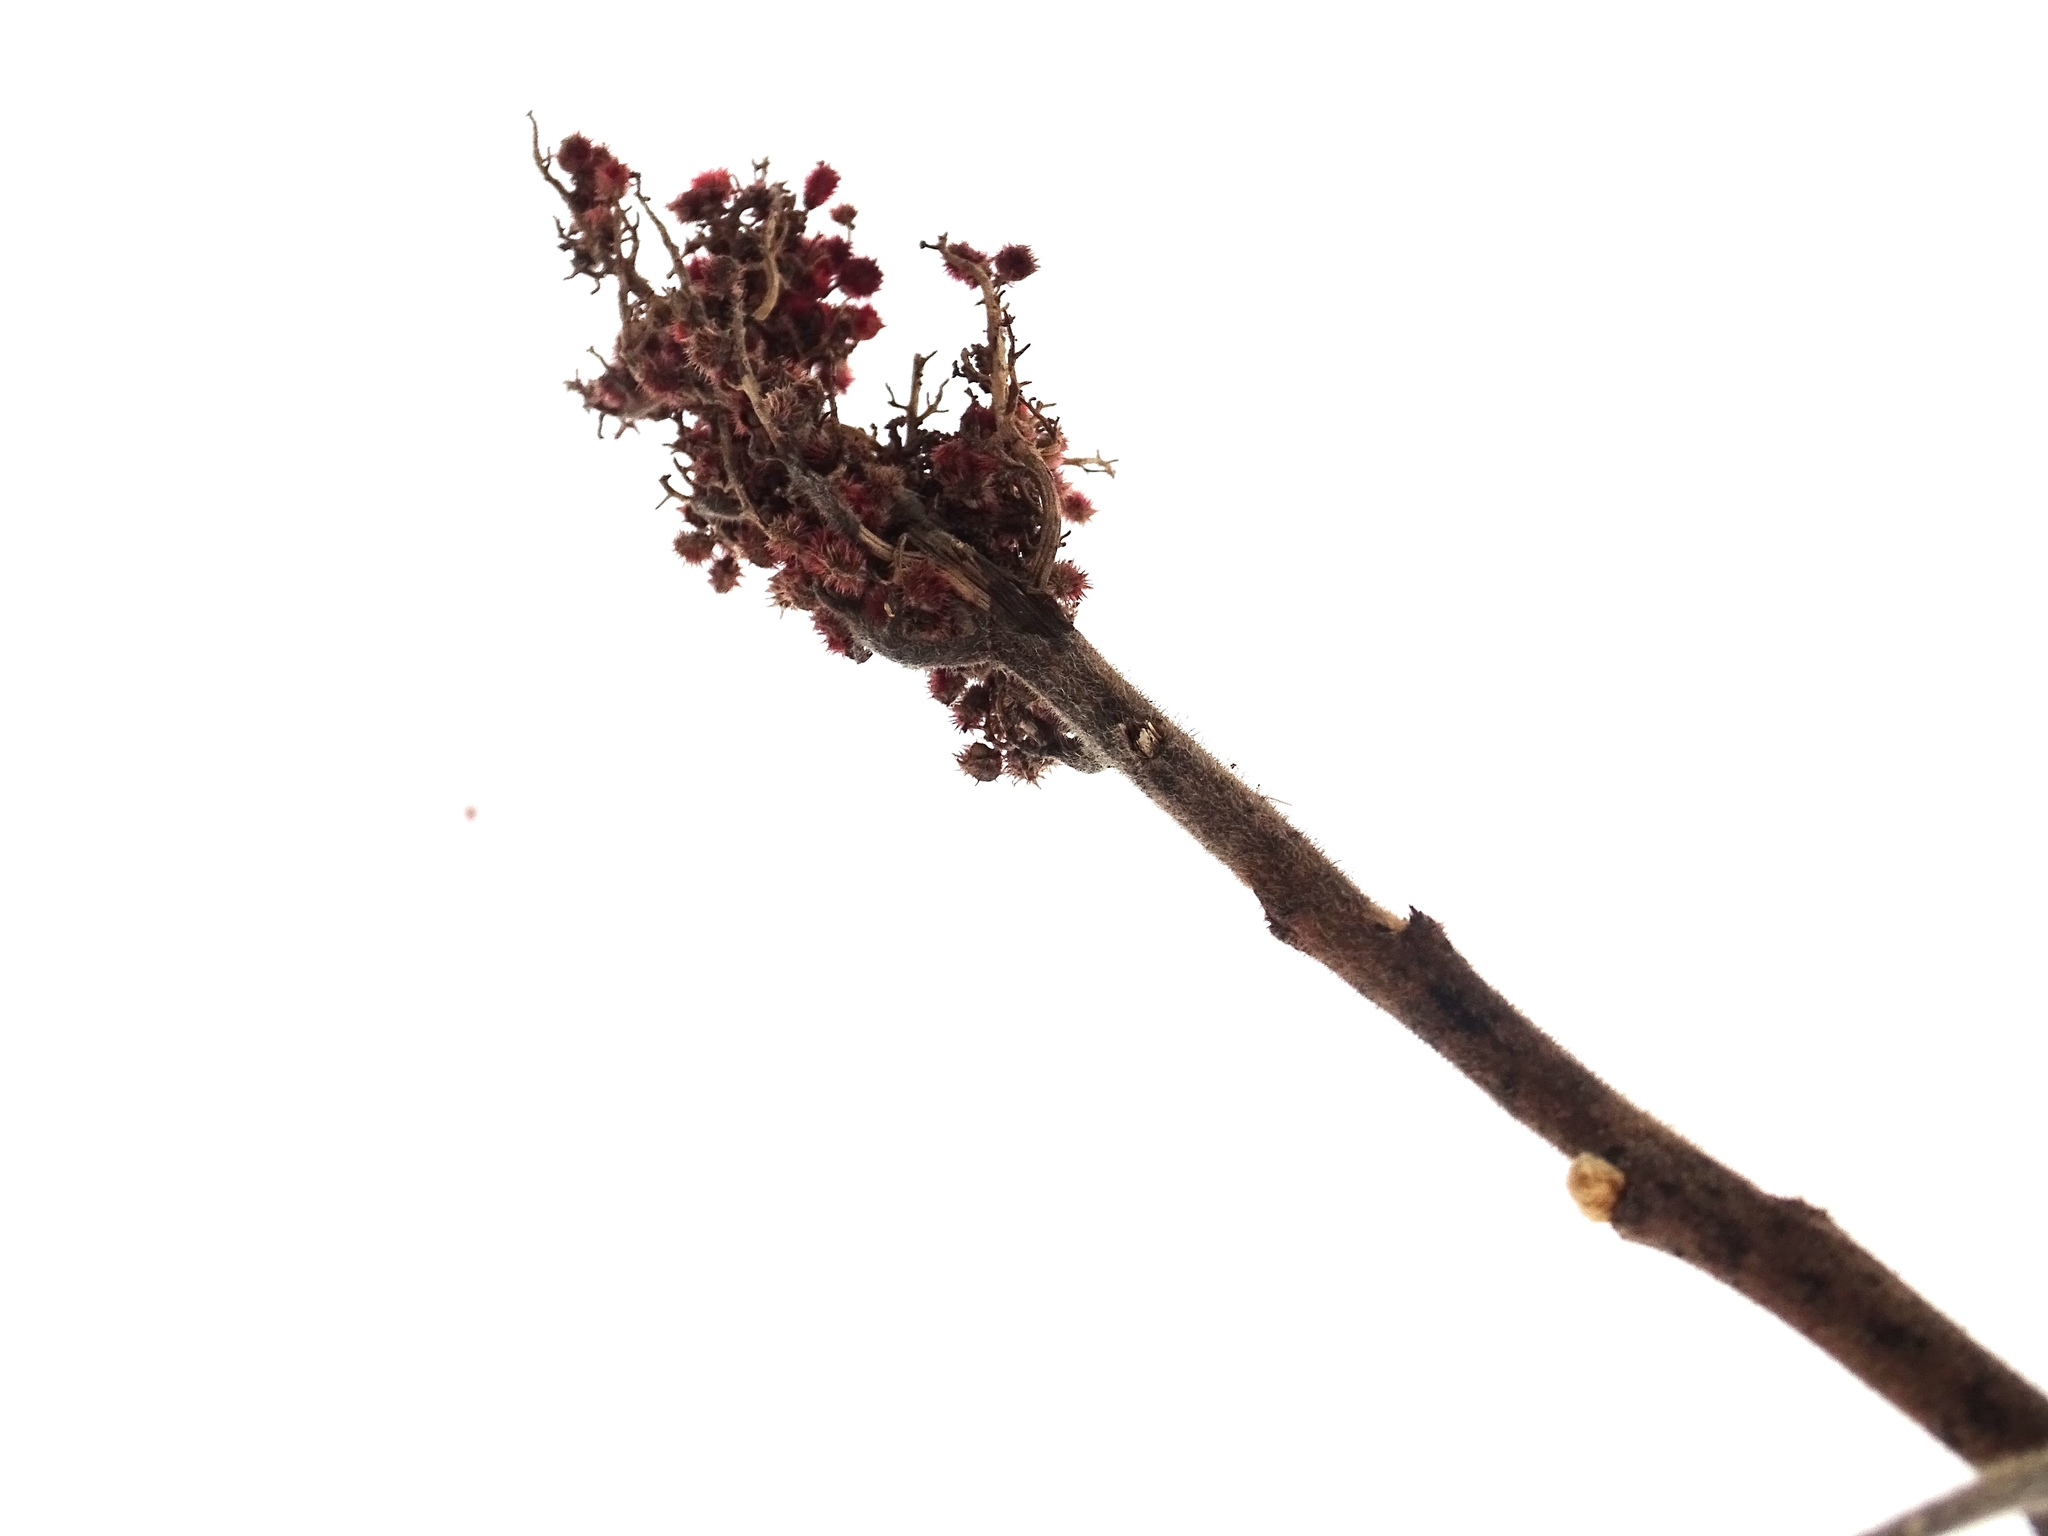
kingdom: Plantae
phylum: Tracheophyta
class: Magnoliopsida
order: Sapindales
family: Anacardiaceae
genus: Rhus
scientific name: Rhus typhina
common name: Staghorn sumac
